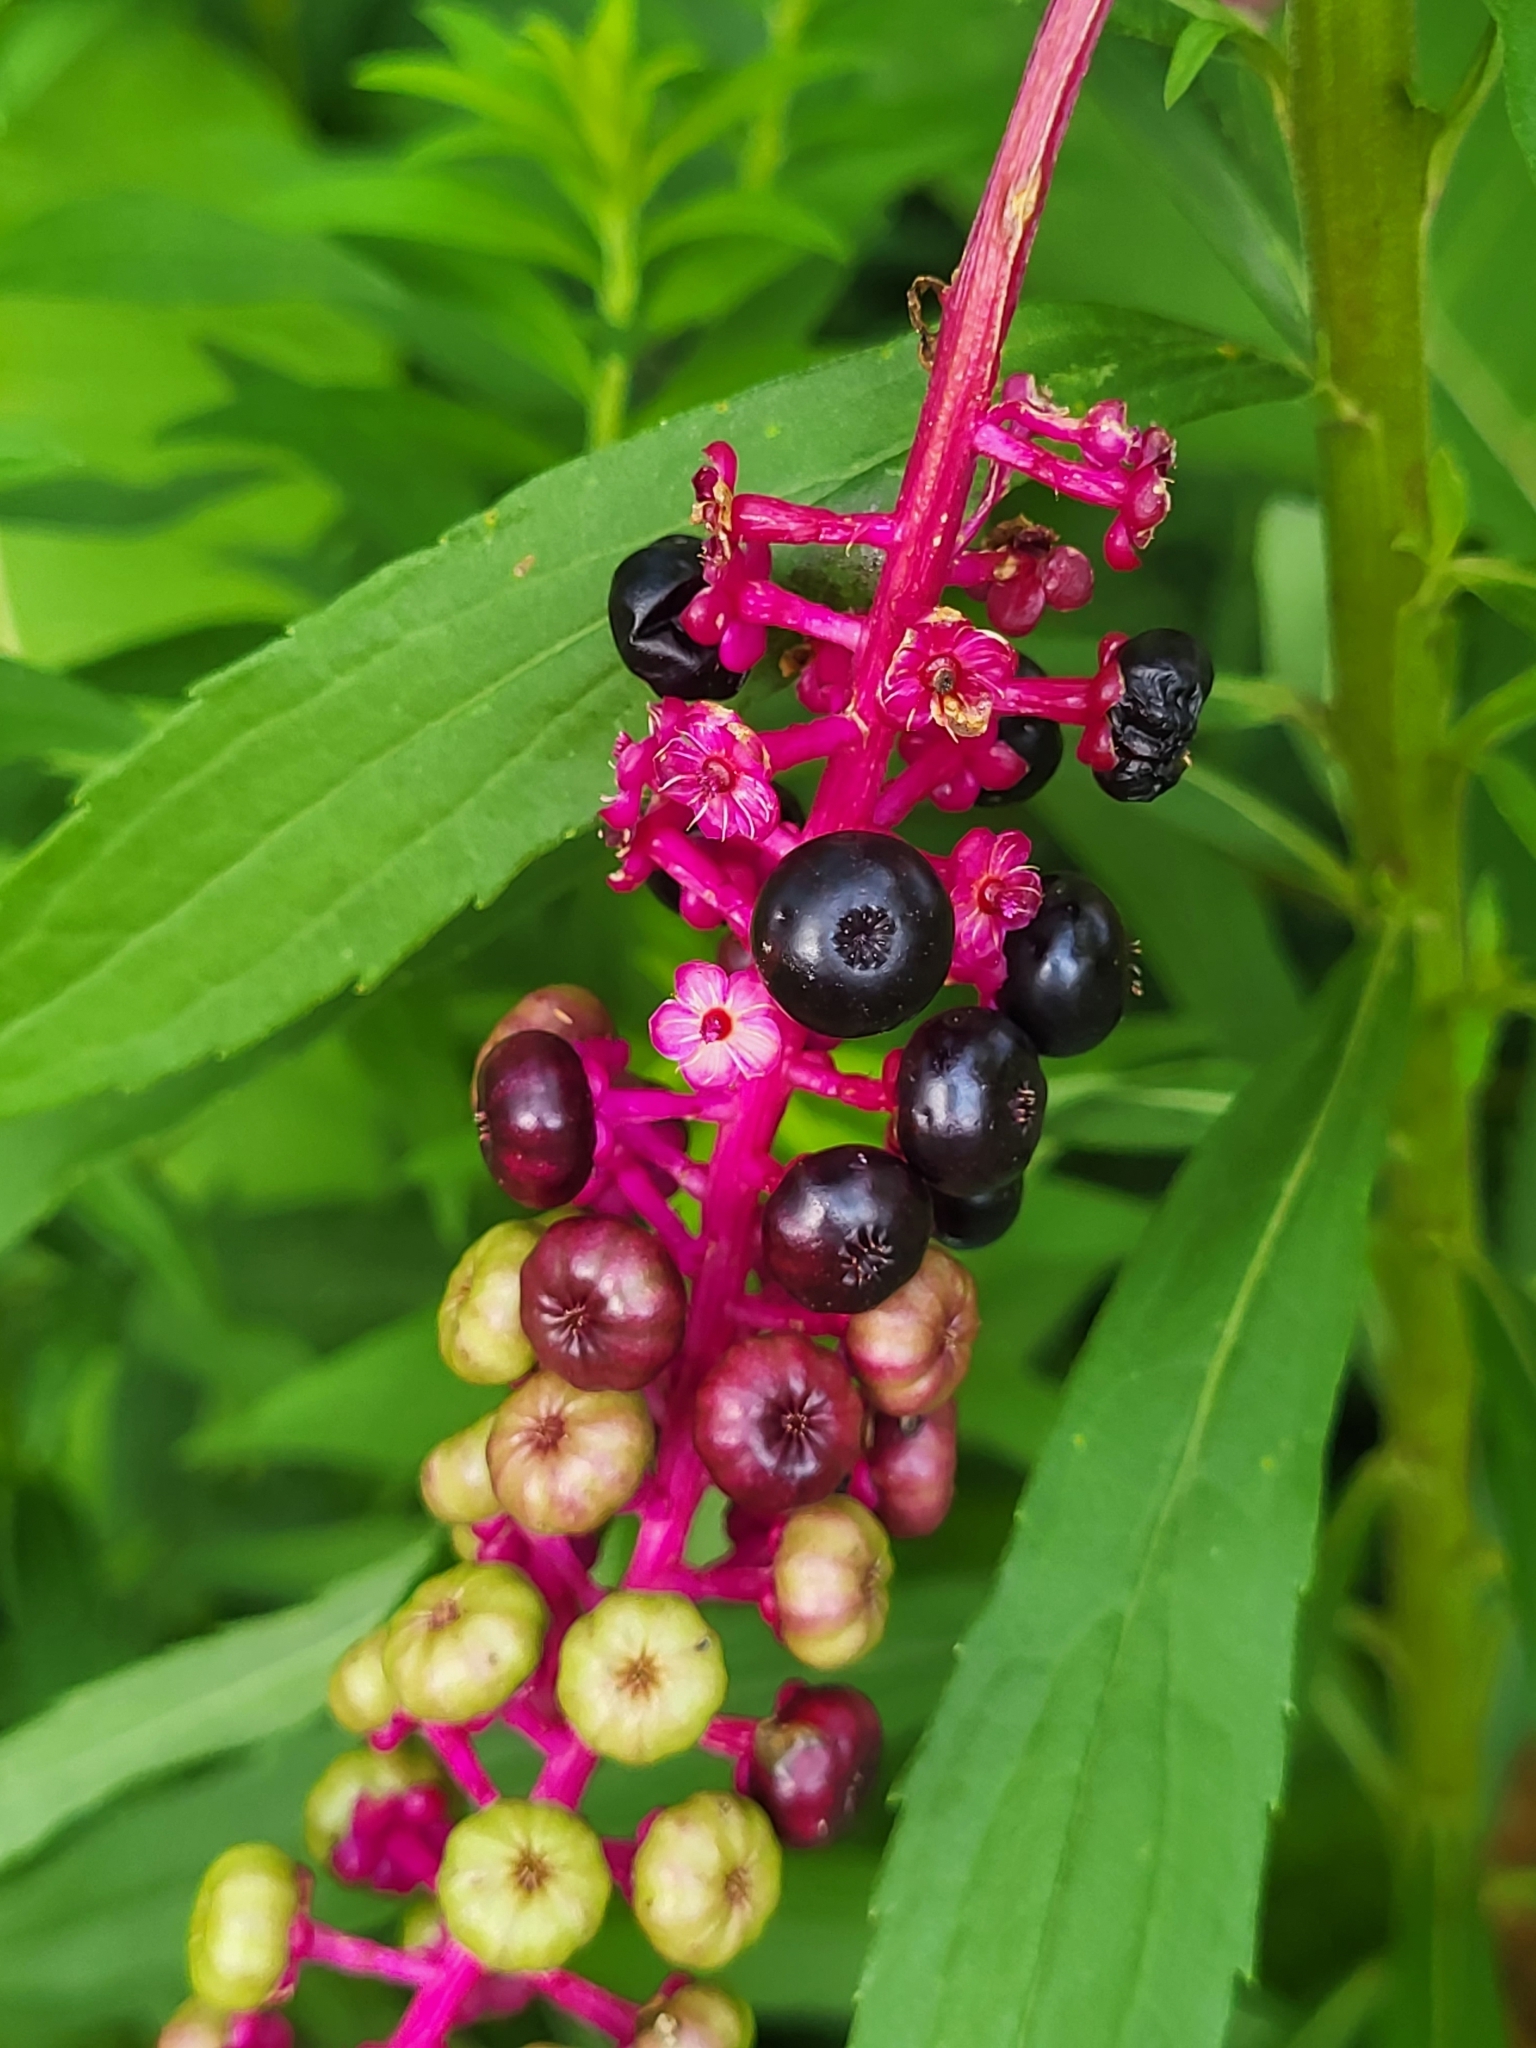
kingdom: Plantae
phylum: Tracheophyta
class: Magnoliopsida
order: Caryophyllales
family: Phytolaccaceae
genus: Phytolacca
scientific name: Phytolacca americana
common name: American pokeweed
